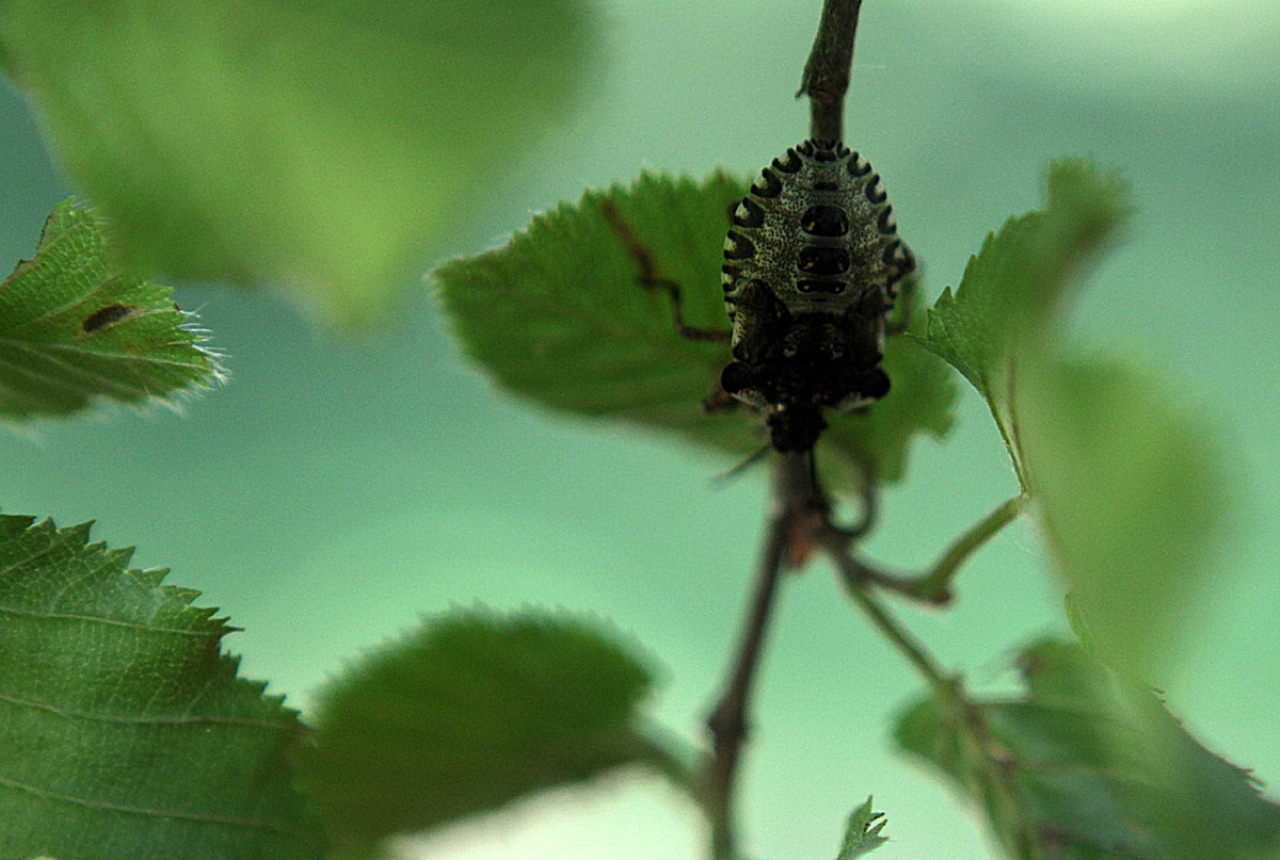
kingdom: Animalia
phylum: Arthropoda
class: Insecta
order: Hemiptera
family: Pentatomidae
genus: Pentatoma
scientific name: Pentatoma rufipes
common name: Forest bug
